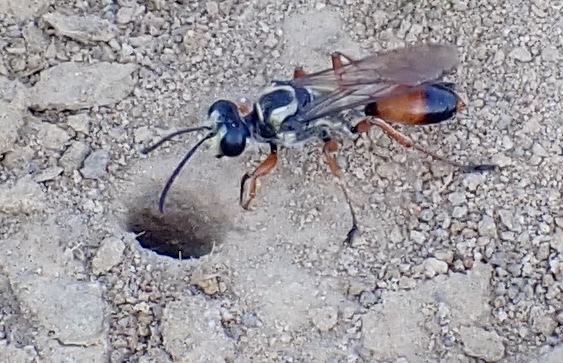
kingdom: Animalia
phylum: Arthropoda
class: Insecta
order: Hymenoptera
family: Sphecidae
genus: Sphex
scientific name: Sphex dorsalis
